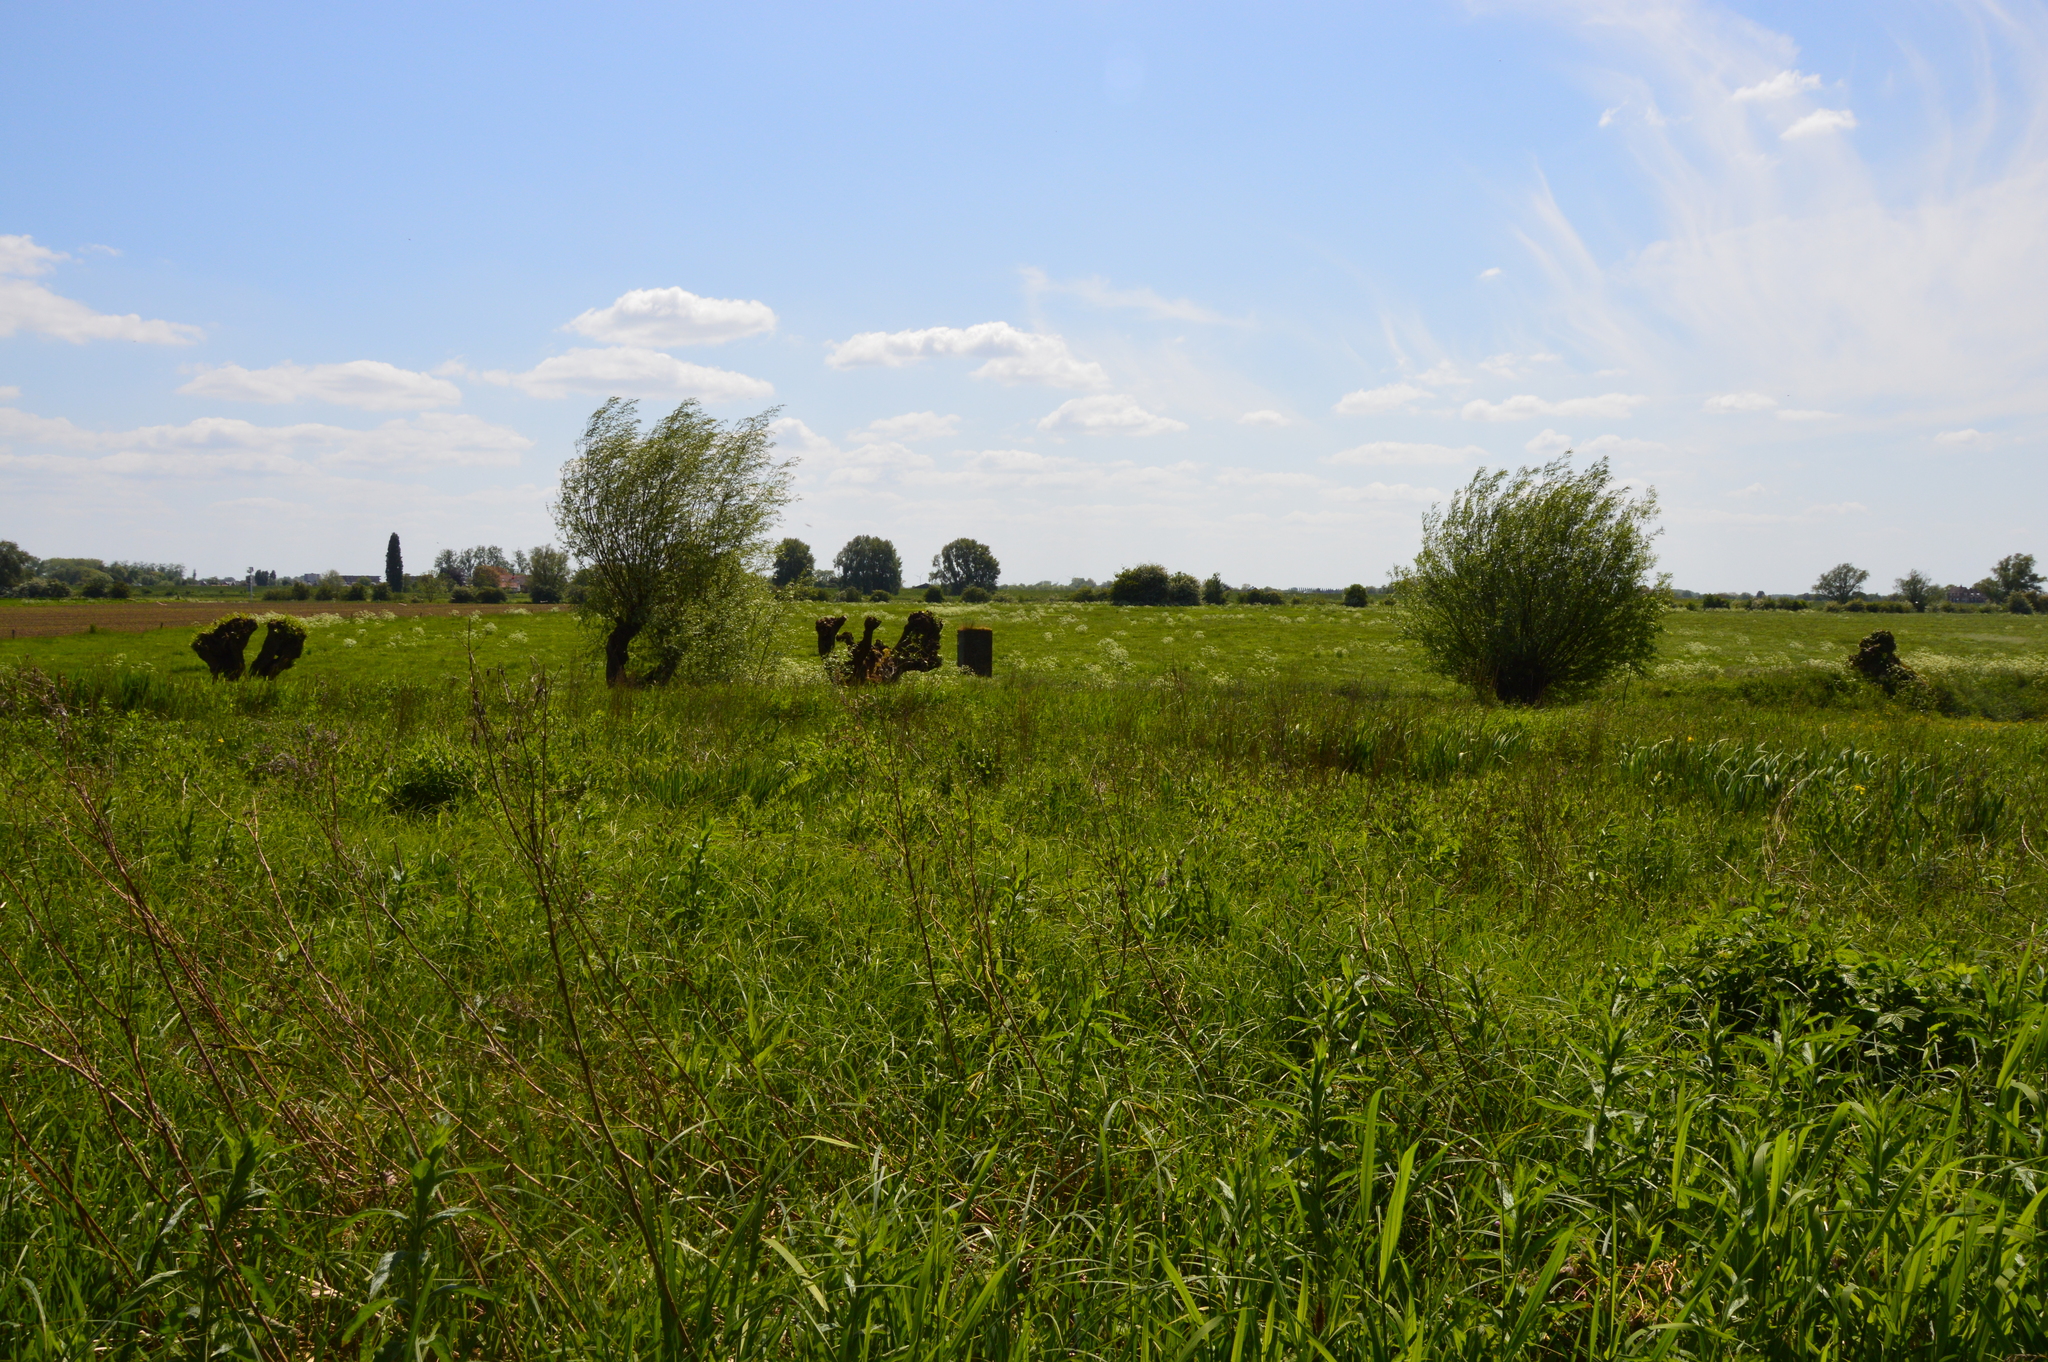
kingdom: Plantae
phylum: Tracheophyta
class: Magnoliopsida
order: Malpighiales
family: Salicaceae
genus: Salix
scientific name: Salix
